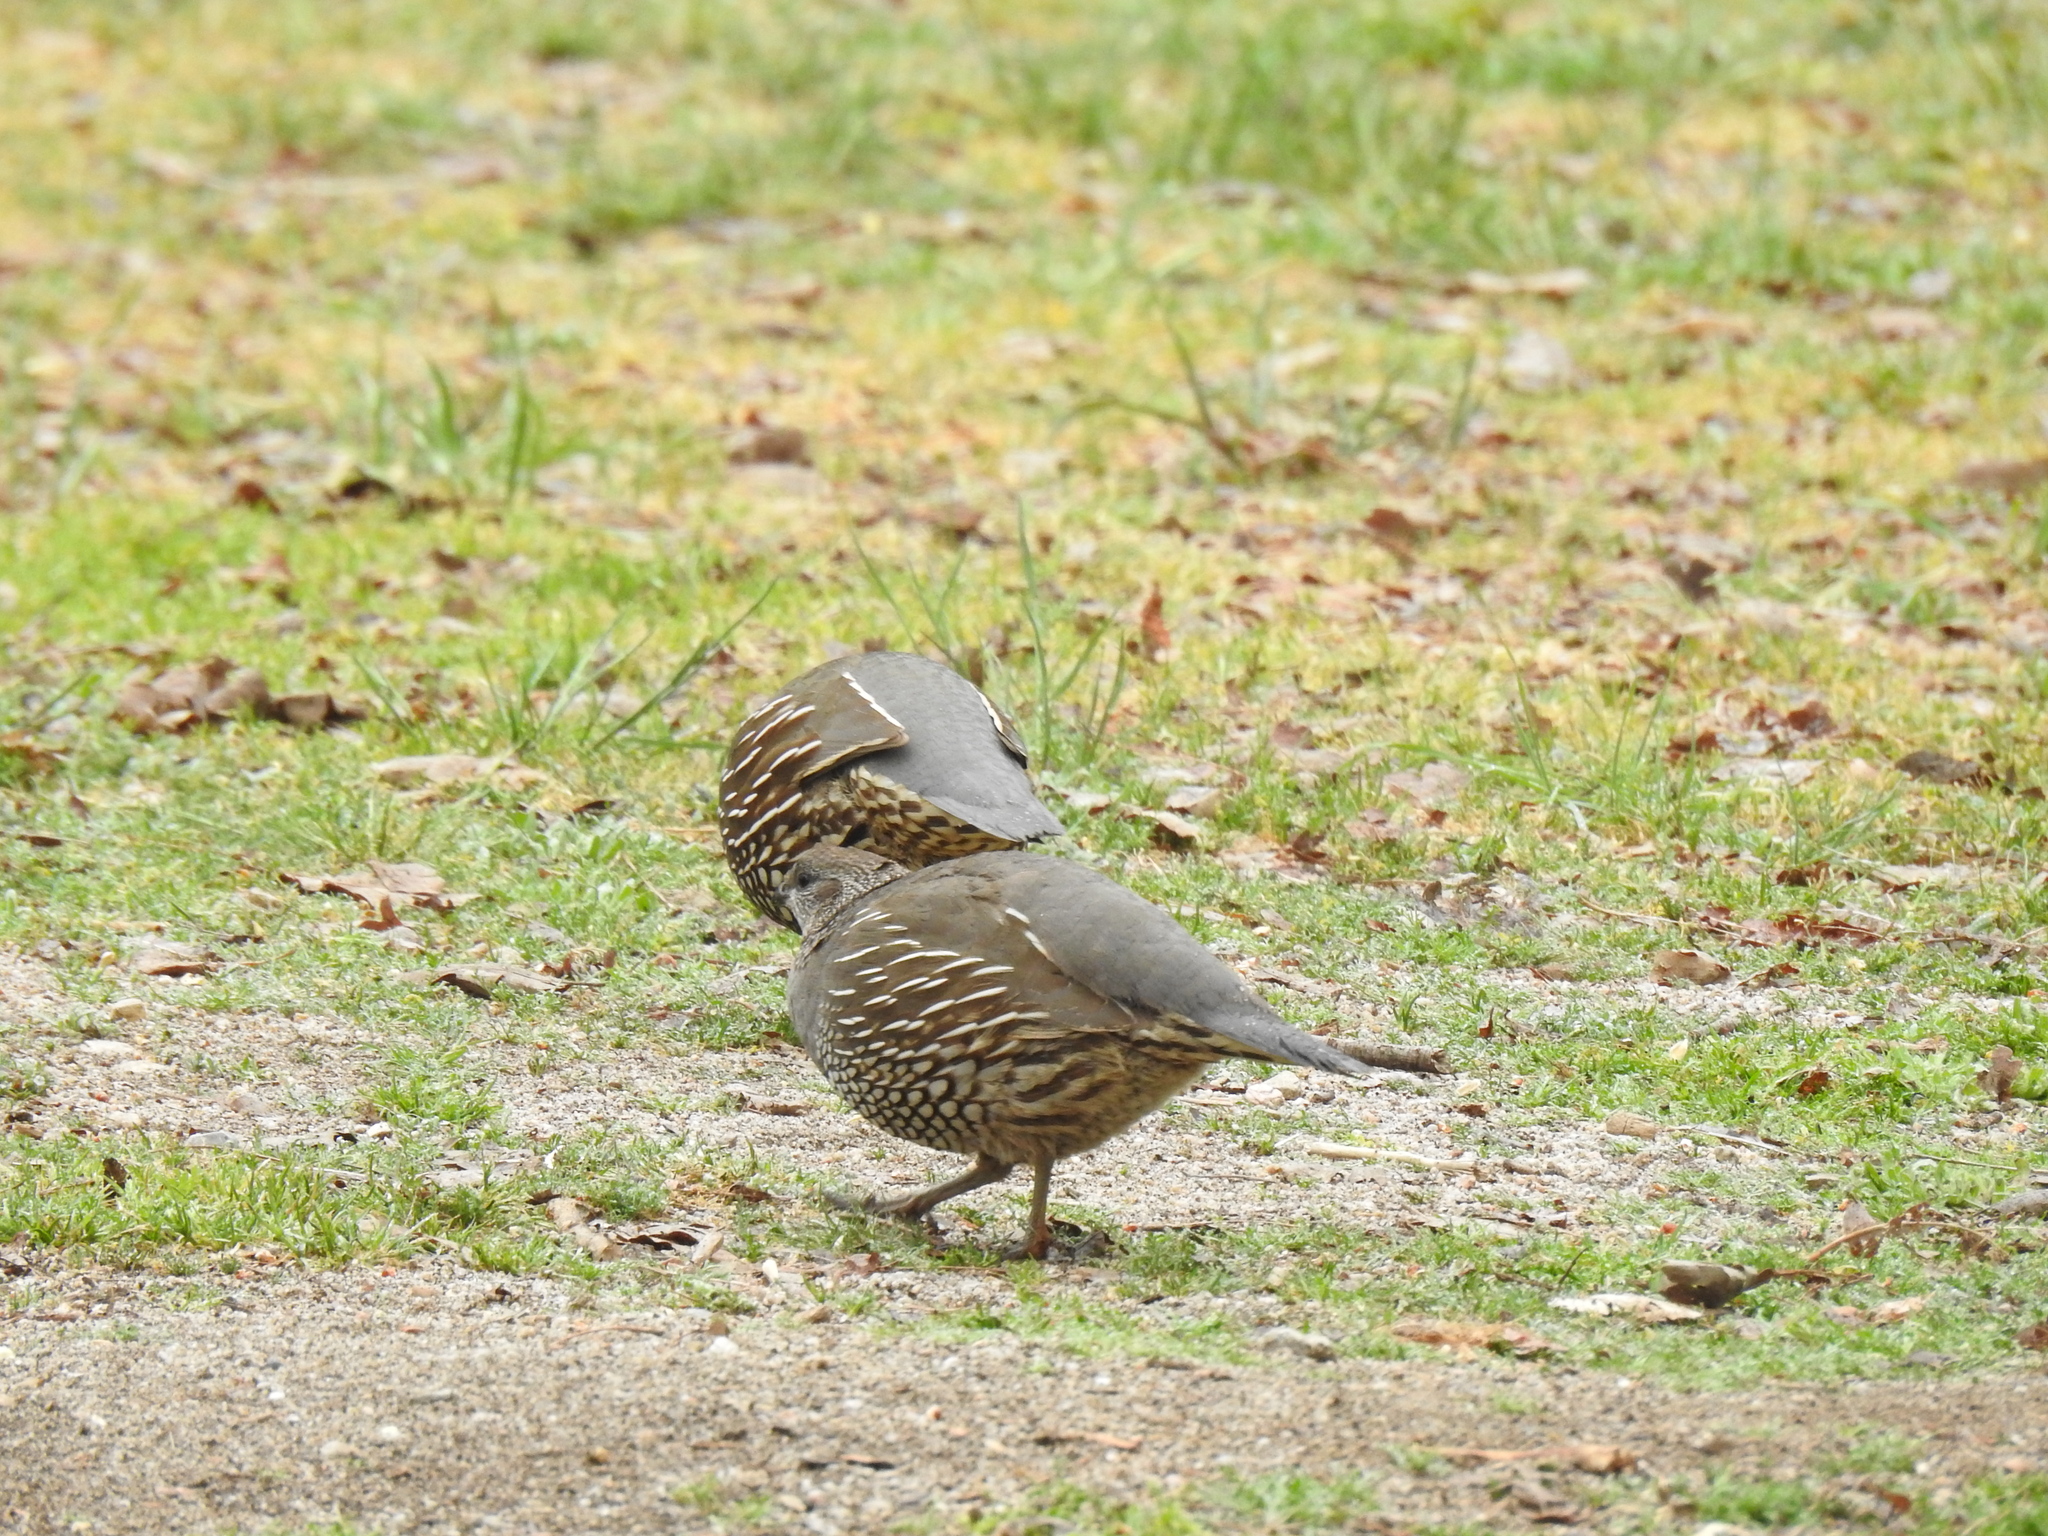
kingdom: Animalia
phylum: Chordata
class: Aves
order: Galliformes
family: Odontophoridae
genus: Callipepla
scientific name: Callipepla californica
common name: California quail
